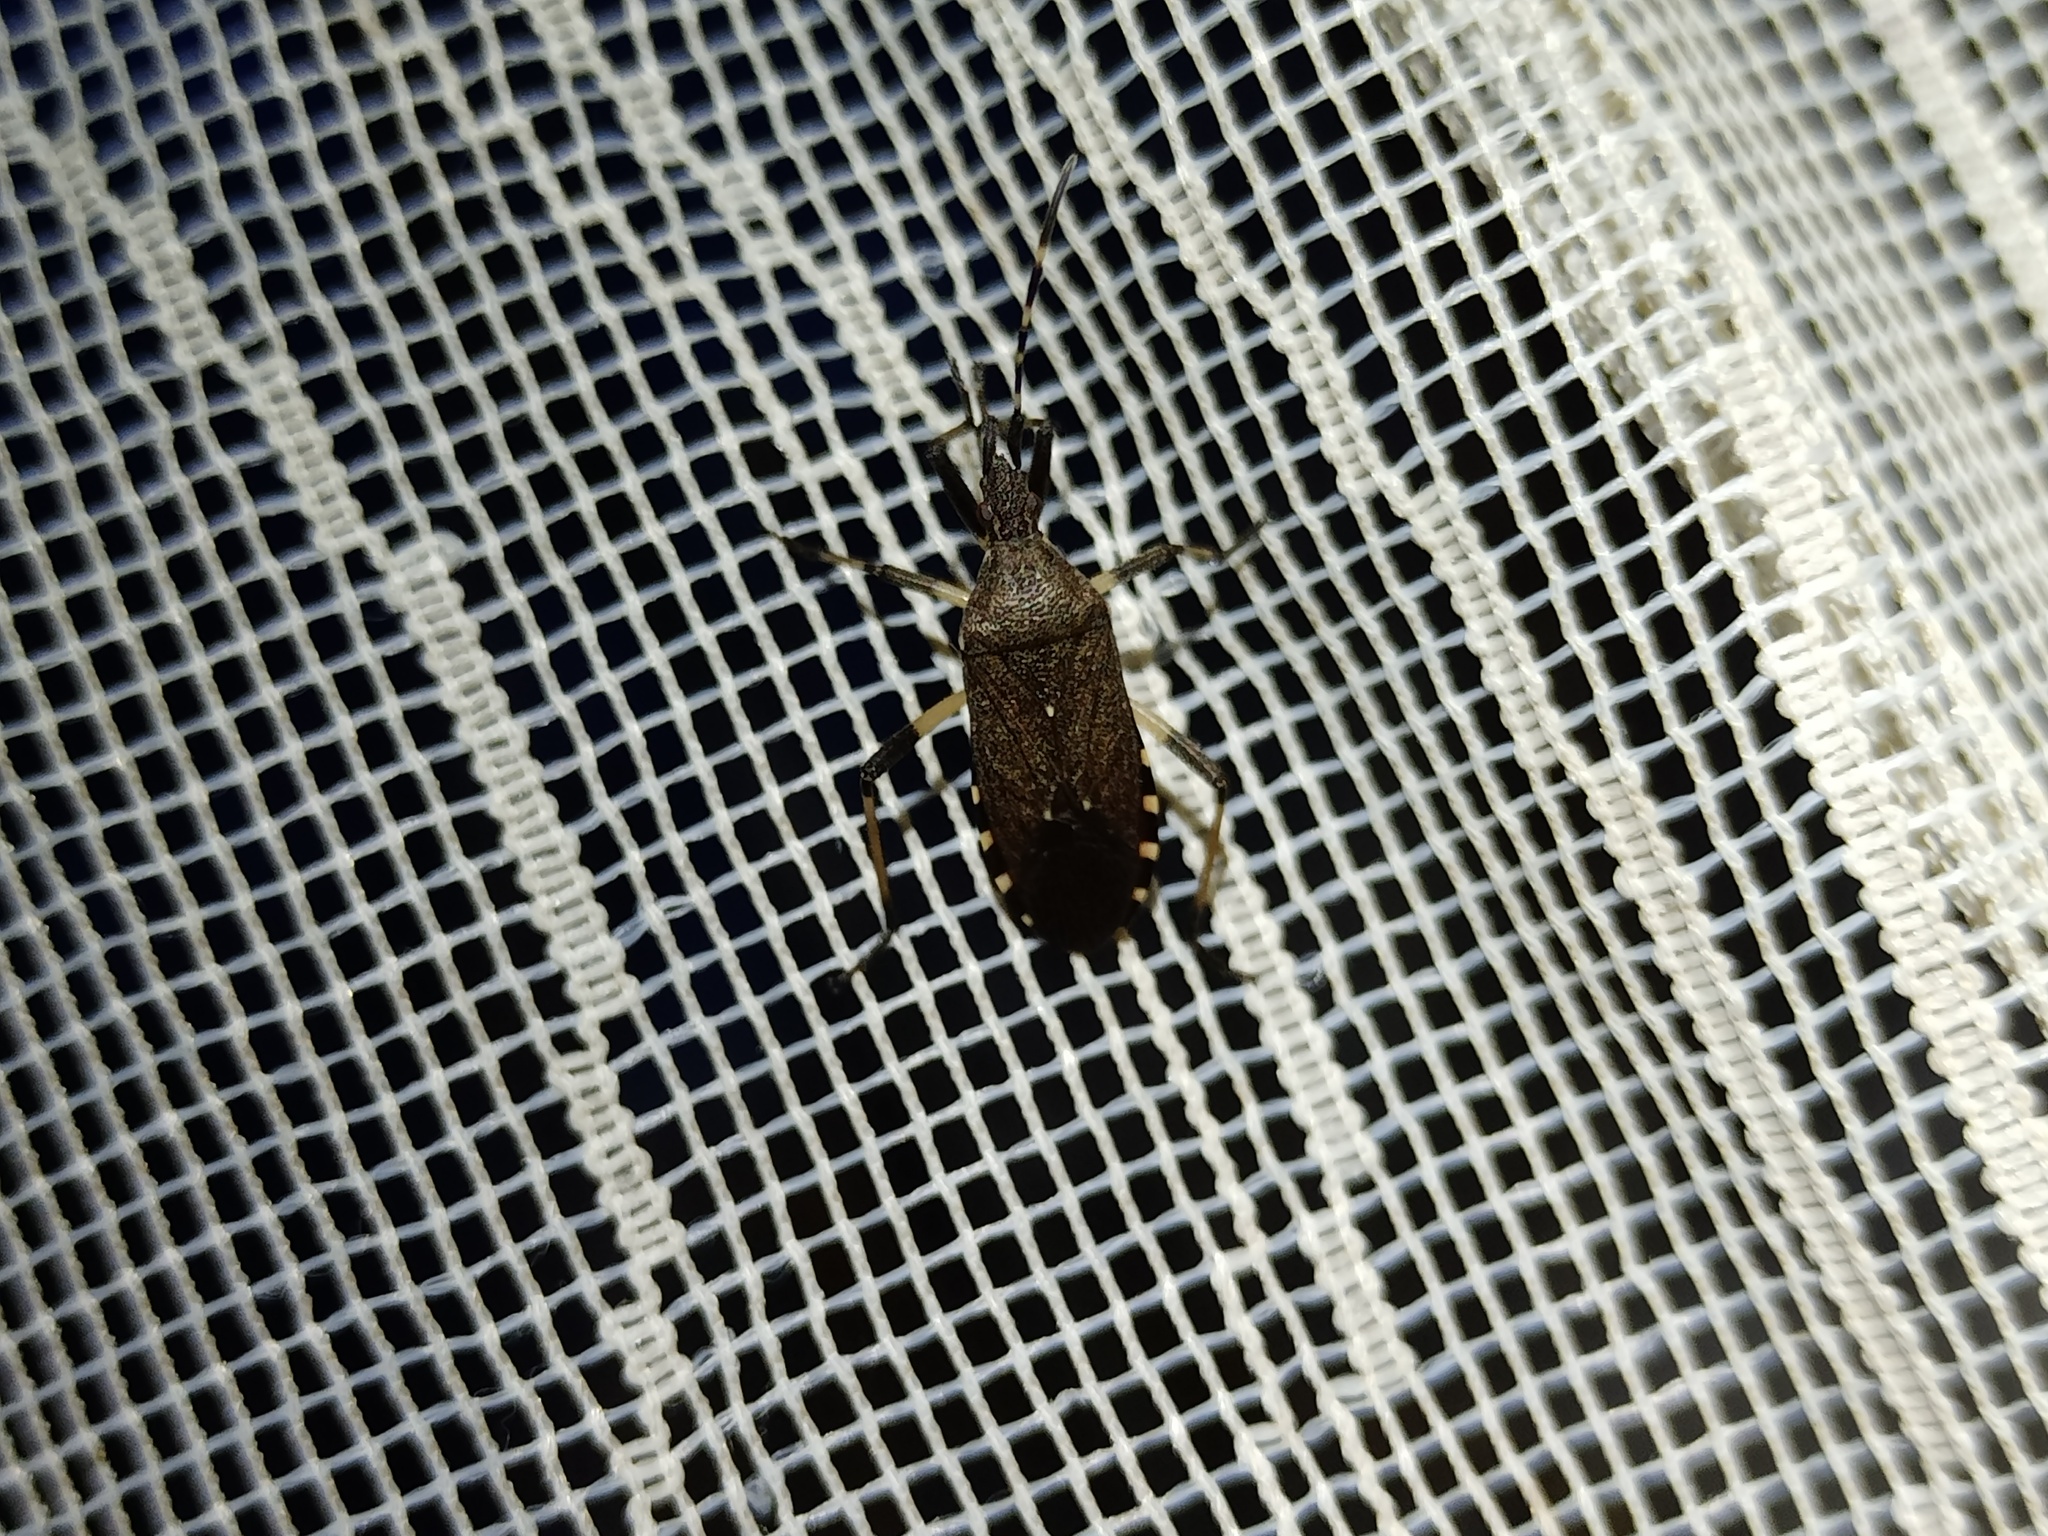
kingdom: Animalia
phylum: Arthropoda
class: Insecta
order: Hemiptera
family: Stenocephalidae
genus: Dicranocephalus
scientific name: Dicranocephalus agilis
